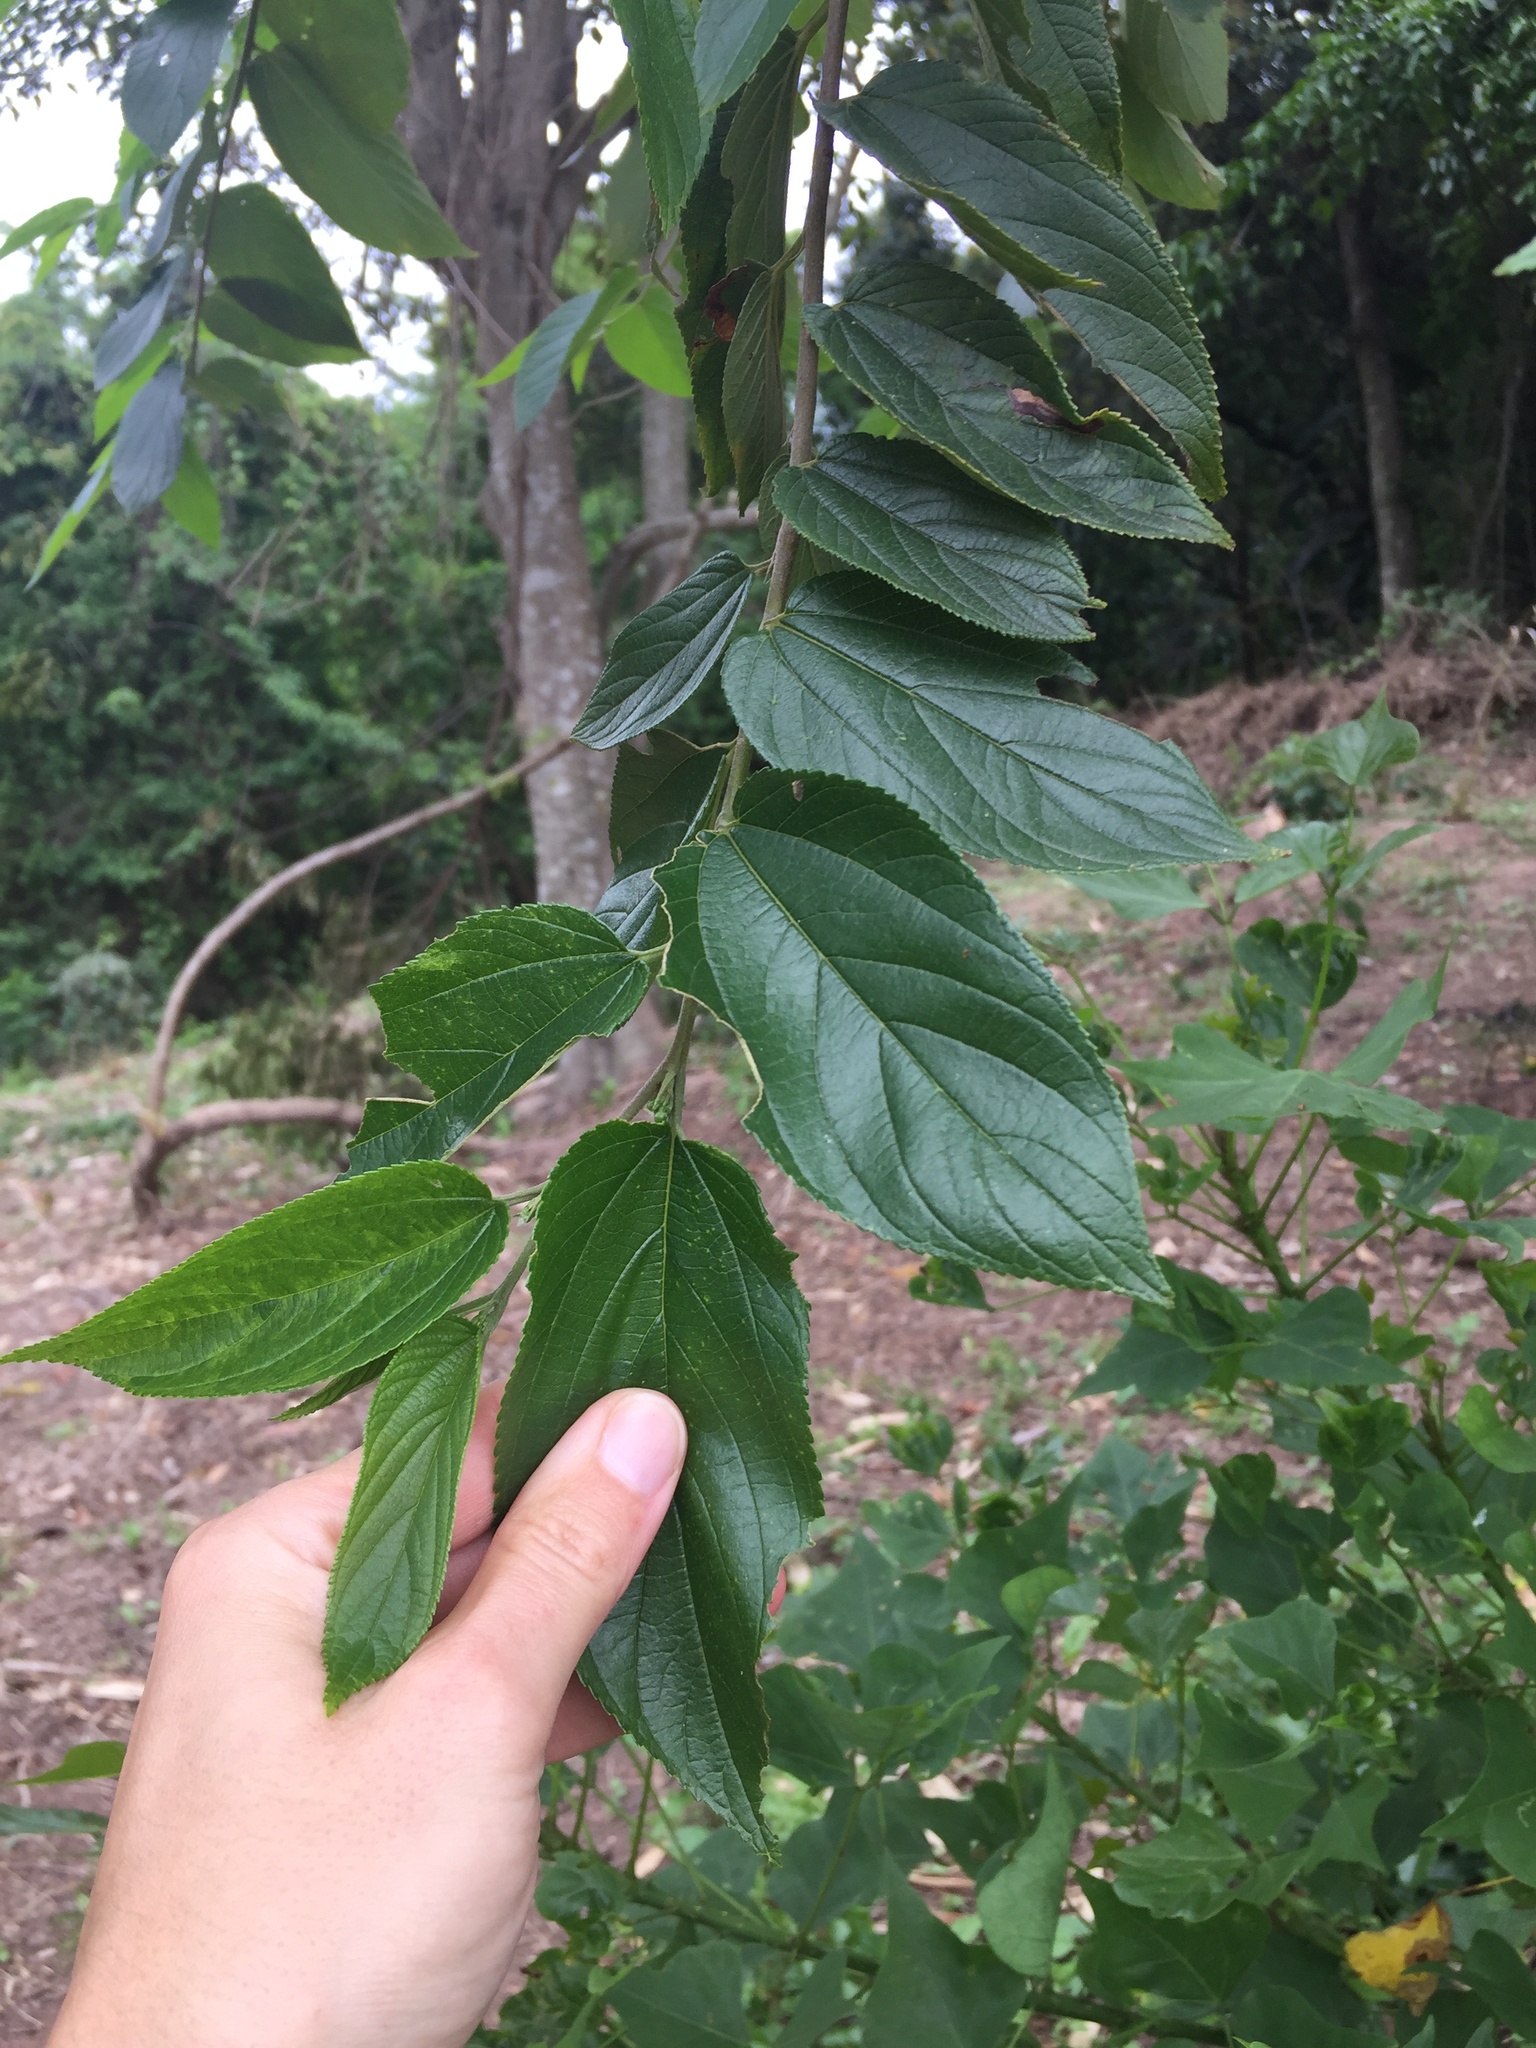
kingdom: Plantae
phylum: Tracheophyta
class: Magnoliopsida
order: Rosales
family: Cannabaceae
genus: Trema
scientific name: Trema orientale
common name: Indian charcoal tree
